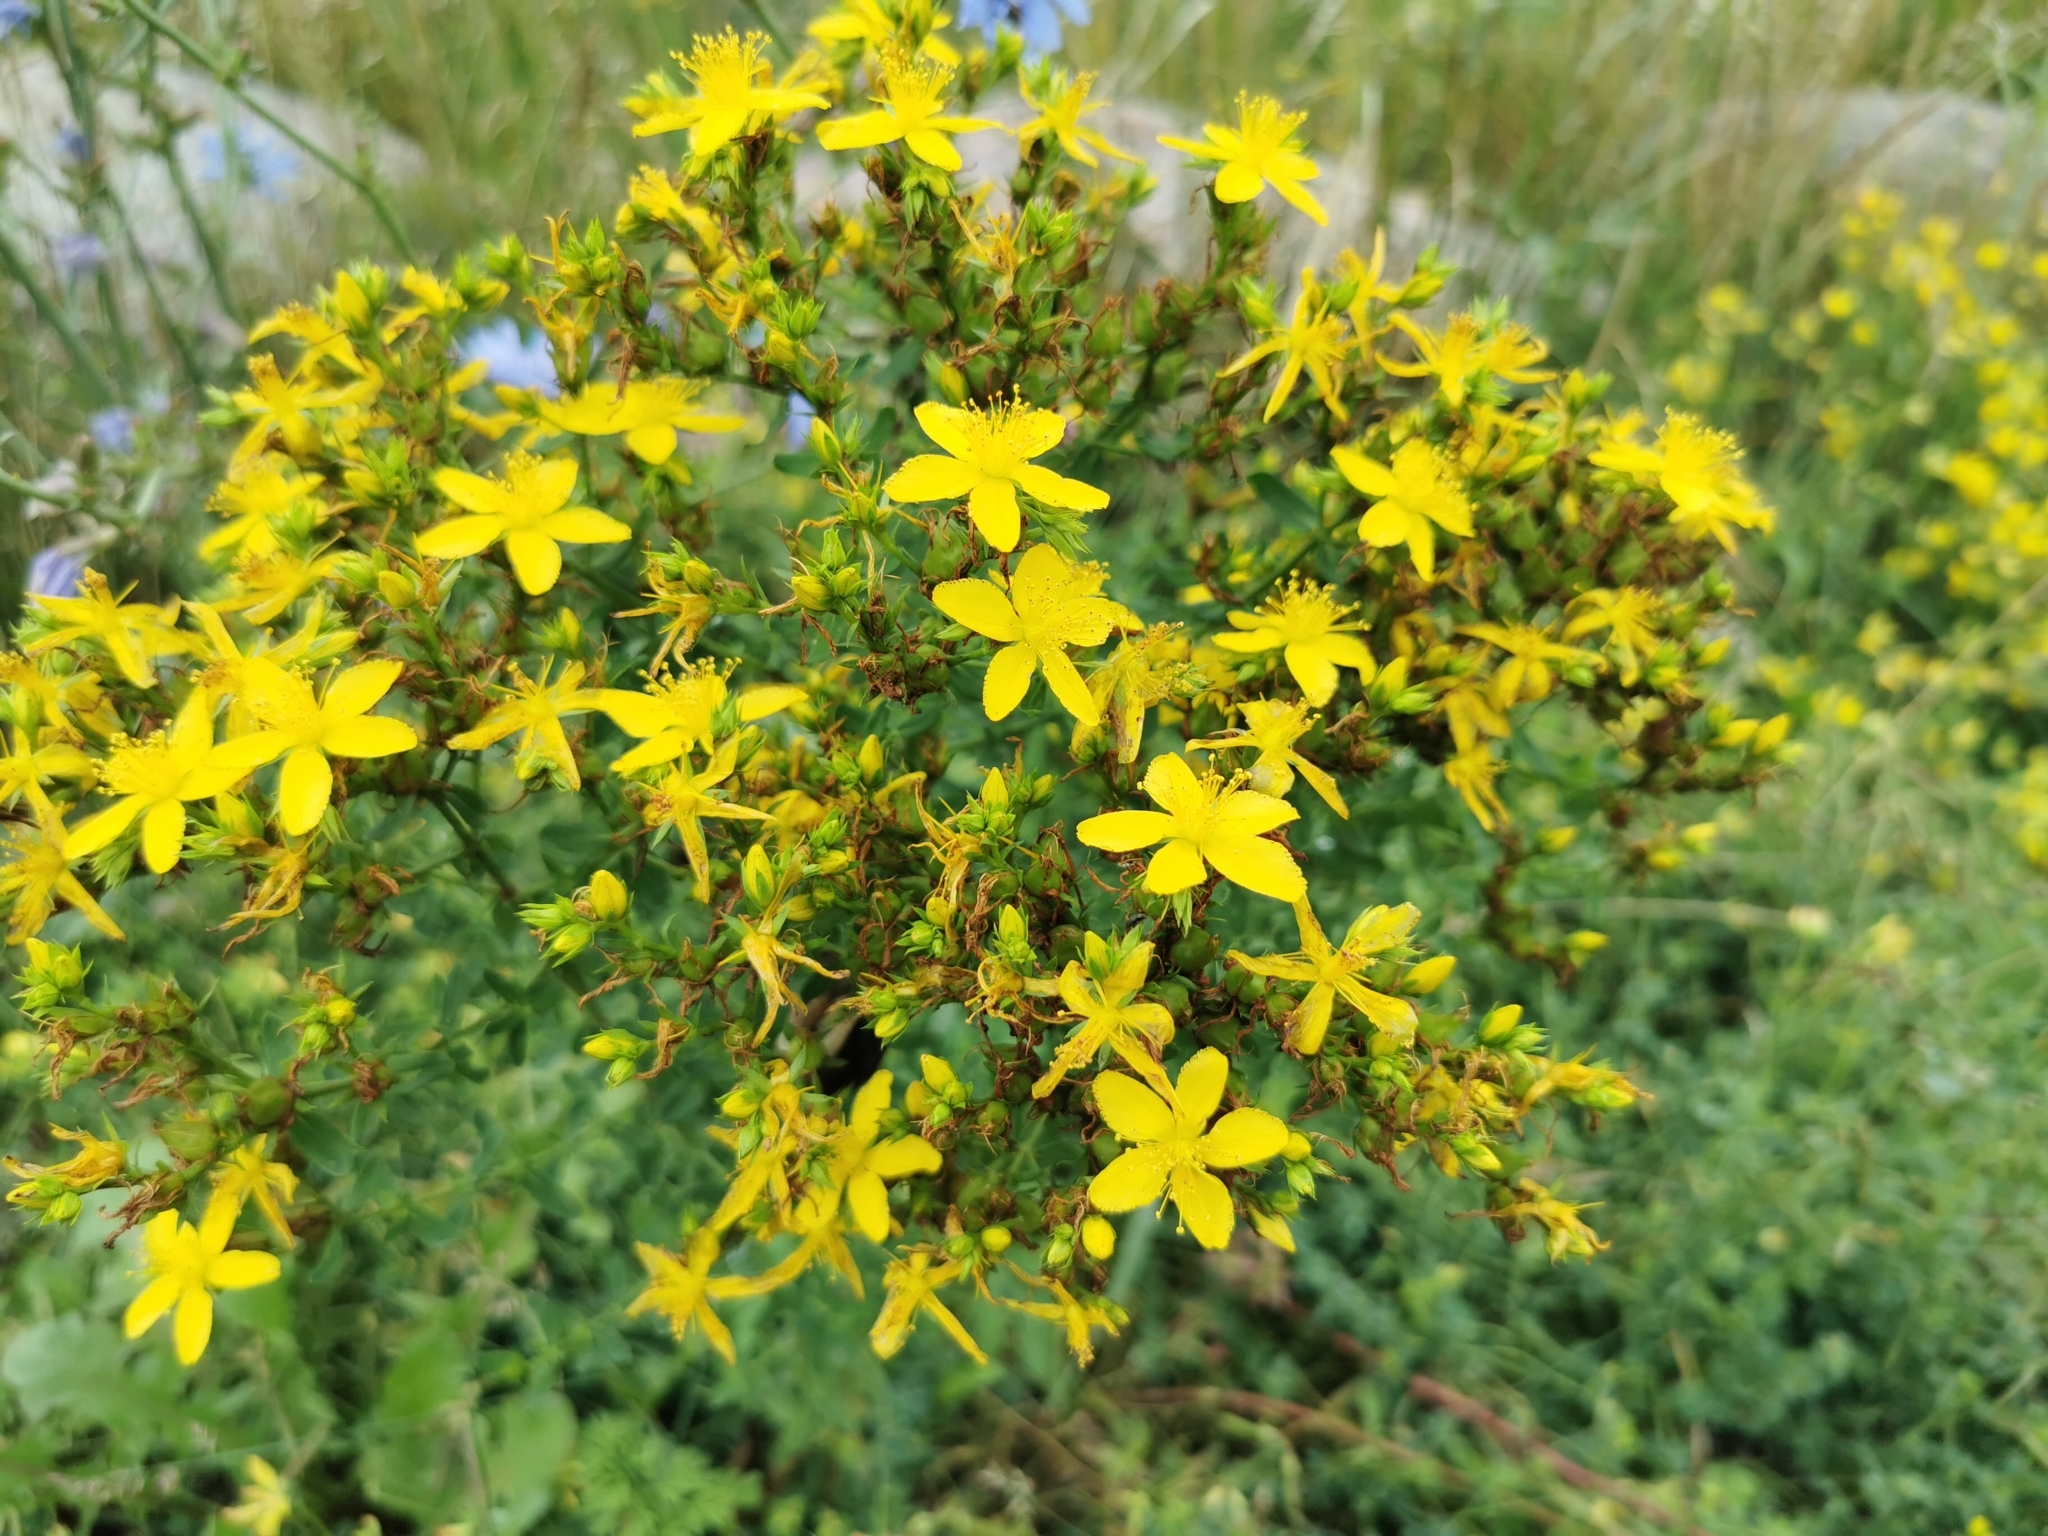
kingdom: Plantae
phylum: Tracheophyta
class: Magnoliopsida
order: Malpighiales
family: Hypericaceae
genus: Hypericum
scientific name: Hypericum perforatum
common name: Common st. johnswort
